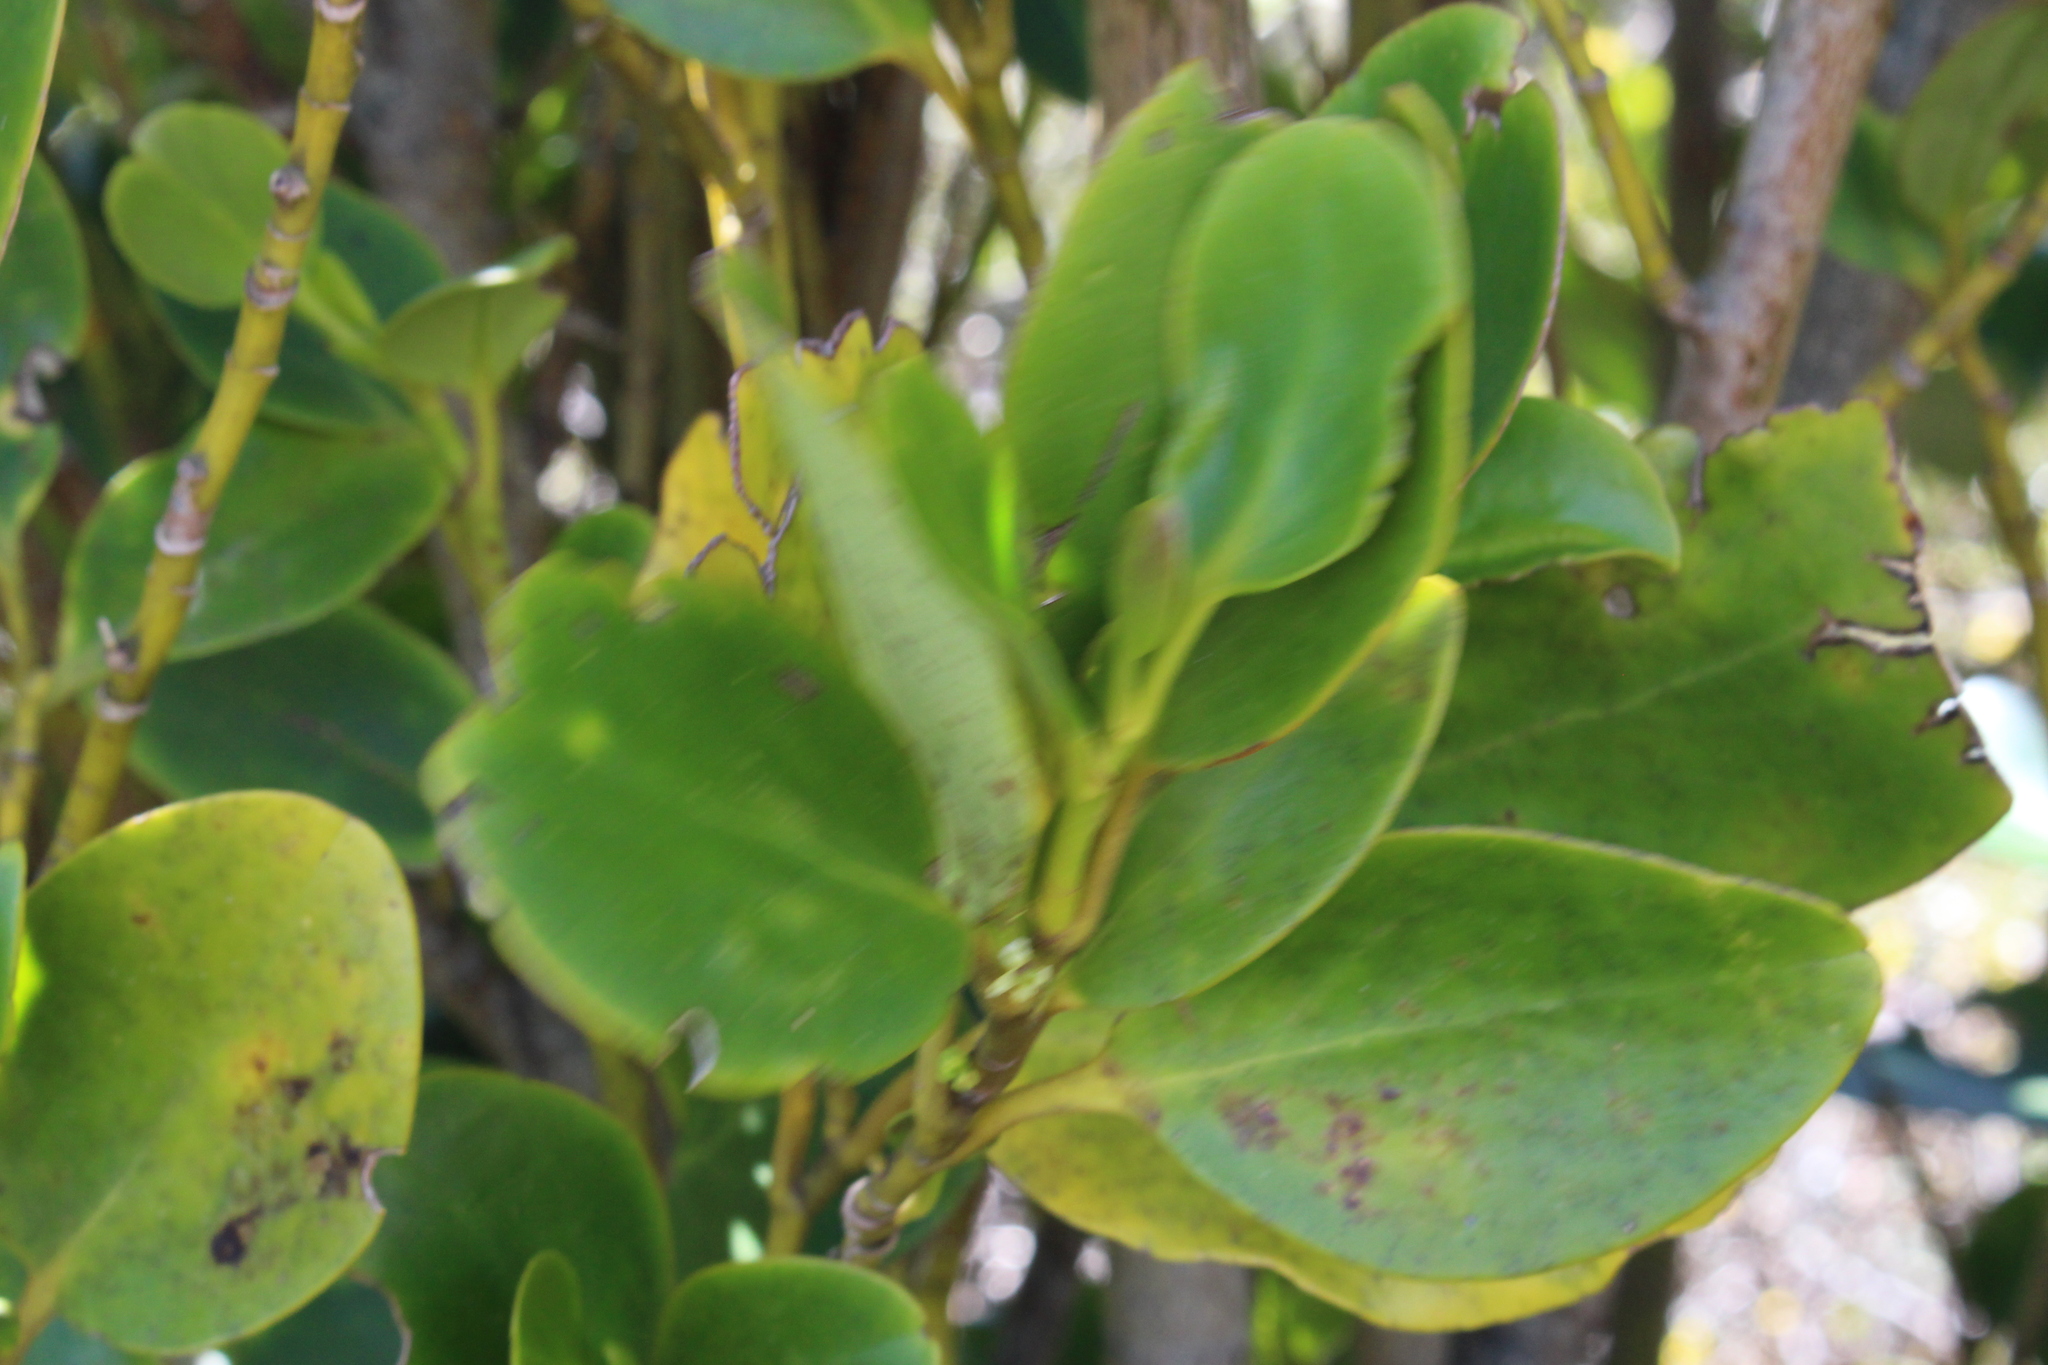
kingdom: Plantae
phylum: Tracheophyta
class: Magnoliopsida
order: Apiales
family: Griseliniaceae
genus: Griselinia
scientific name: Griselinia littoralis
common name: New zealand broadleaf
